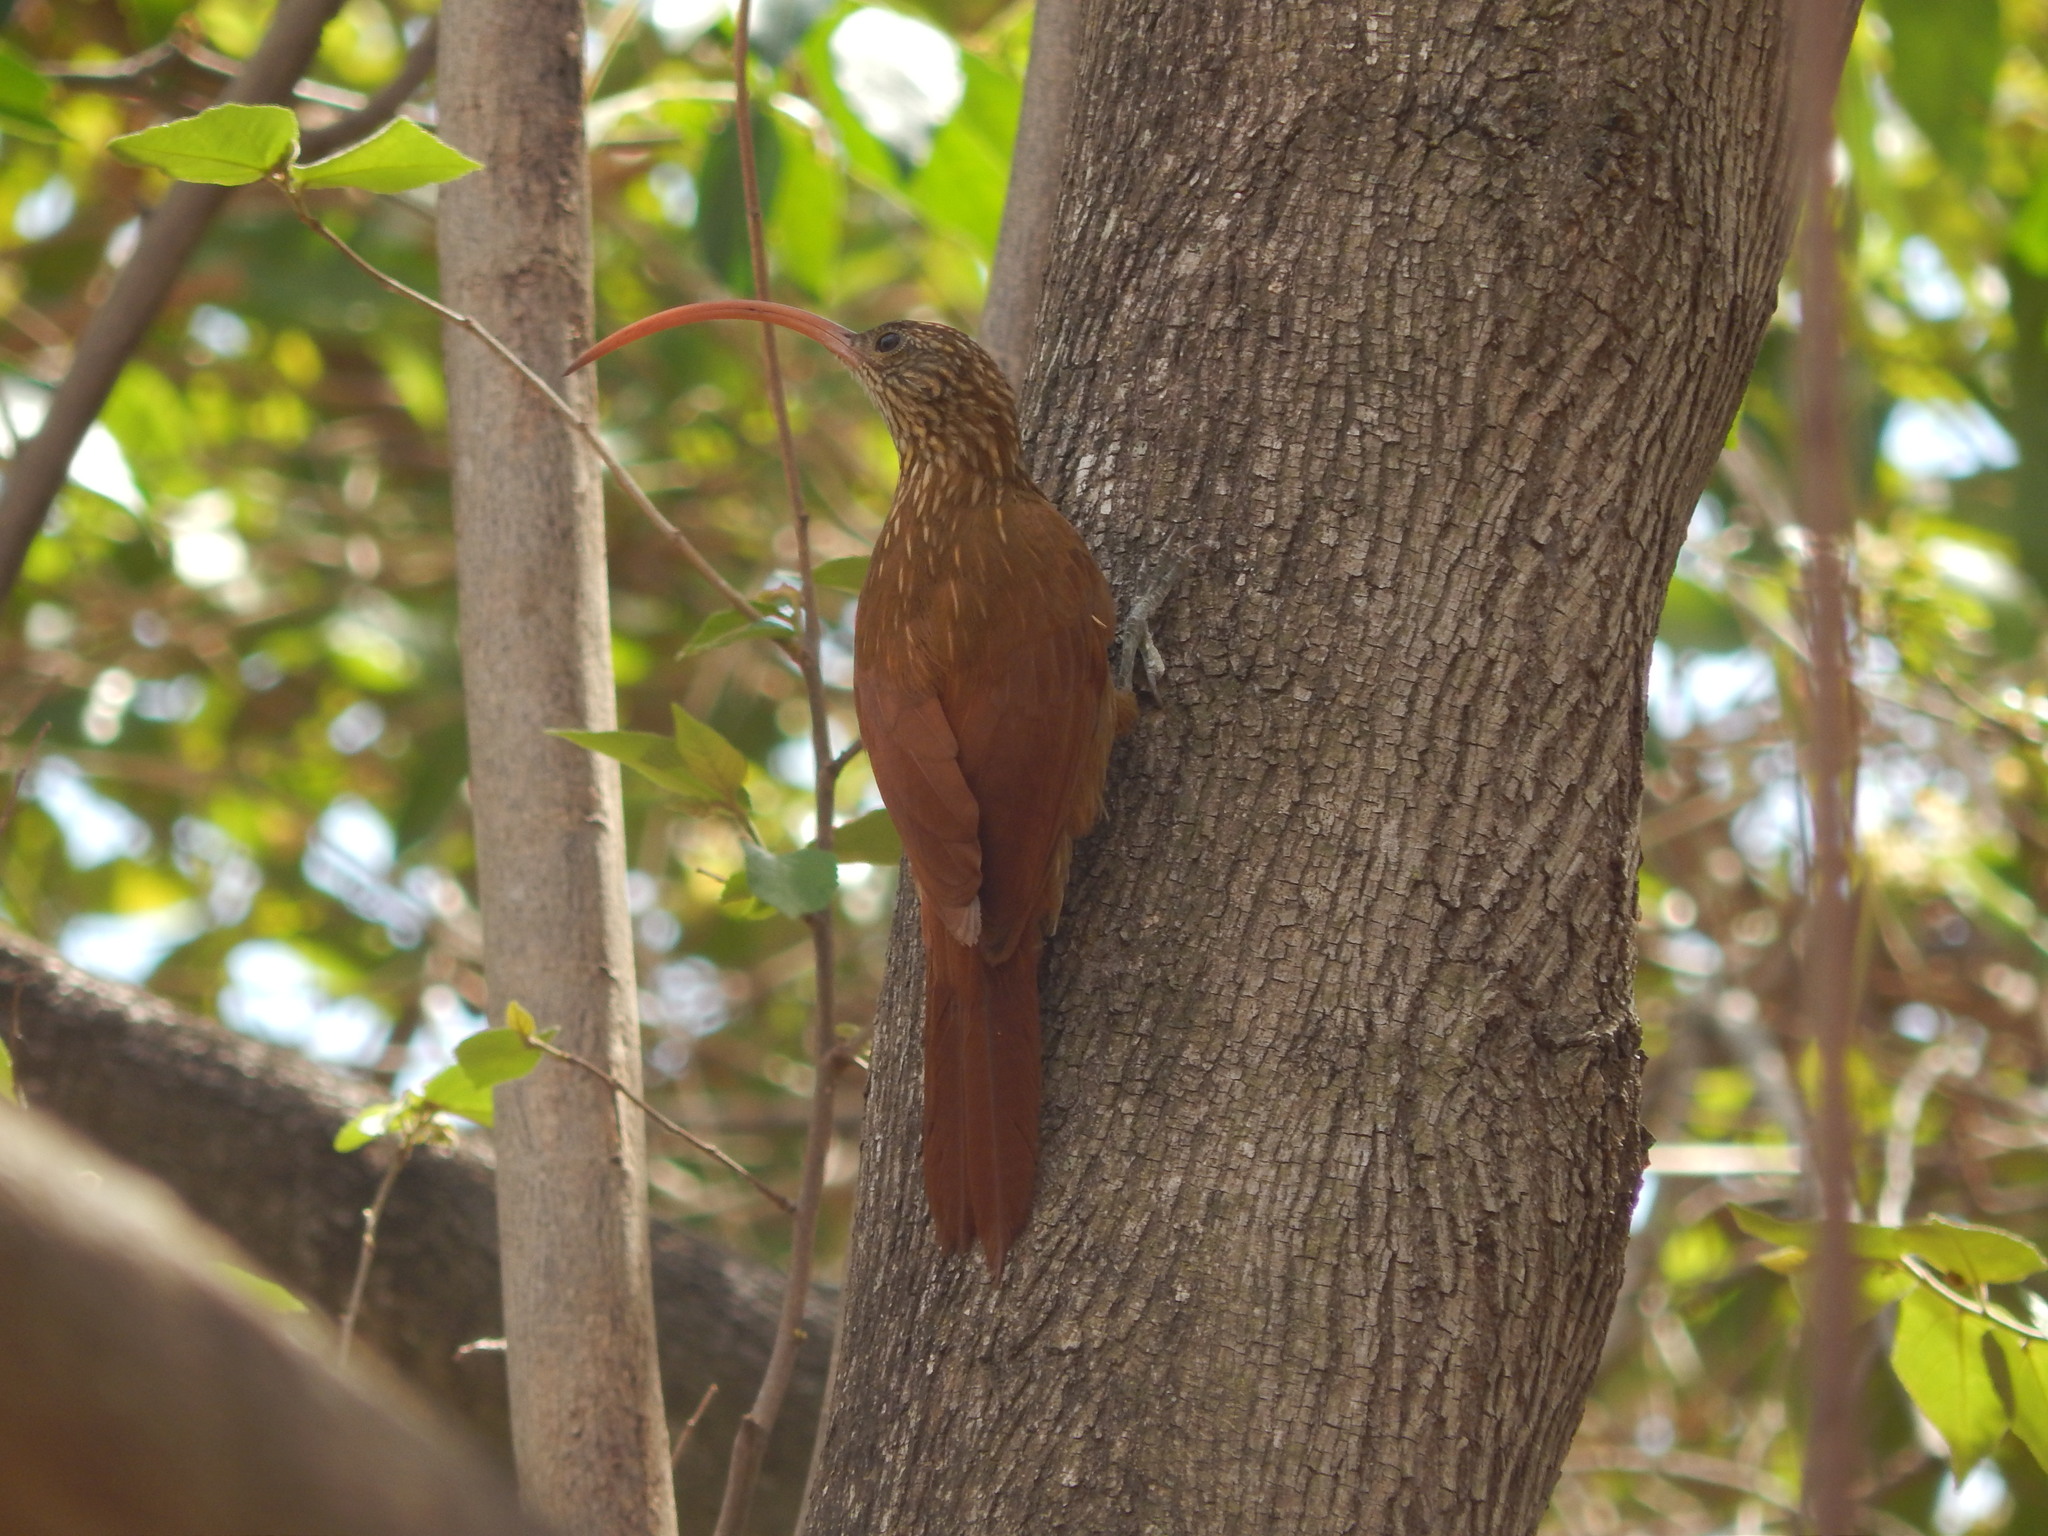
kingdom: Animalia
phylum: Chordata
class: Aves
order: Passeriformes
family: Furnariidae
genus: Campylorhamphus
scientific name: Campylorhamphus trochilirostris
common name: Red-billed scythebill
